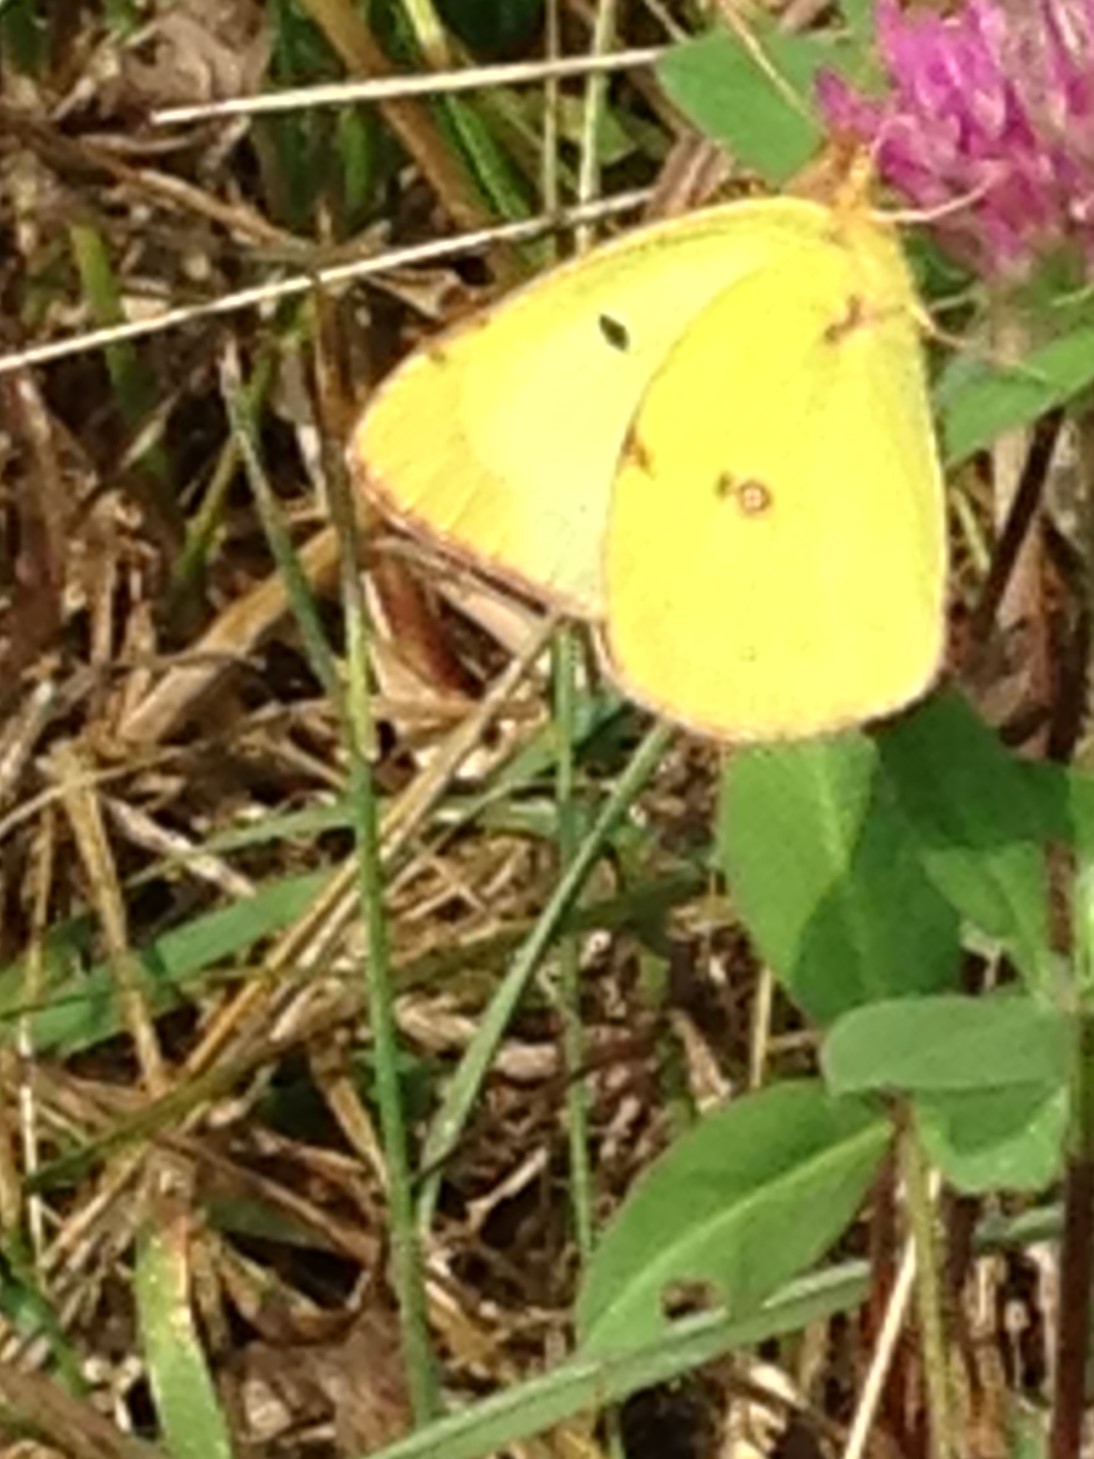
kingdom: Animalia
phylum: Arthropoda
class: Insecta
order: Lepidoptera
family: Pieridae
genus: Colias
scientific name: Colias philodice
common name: Clouded sulphur
